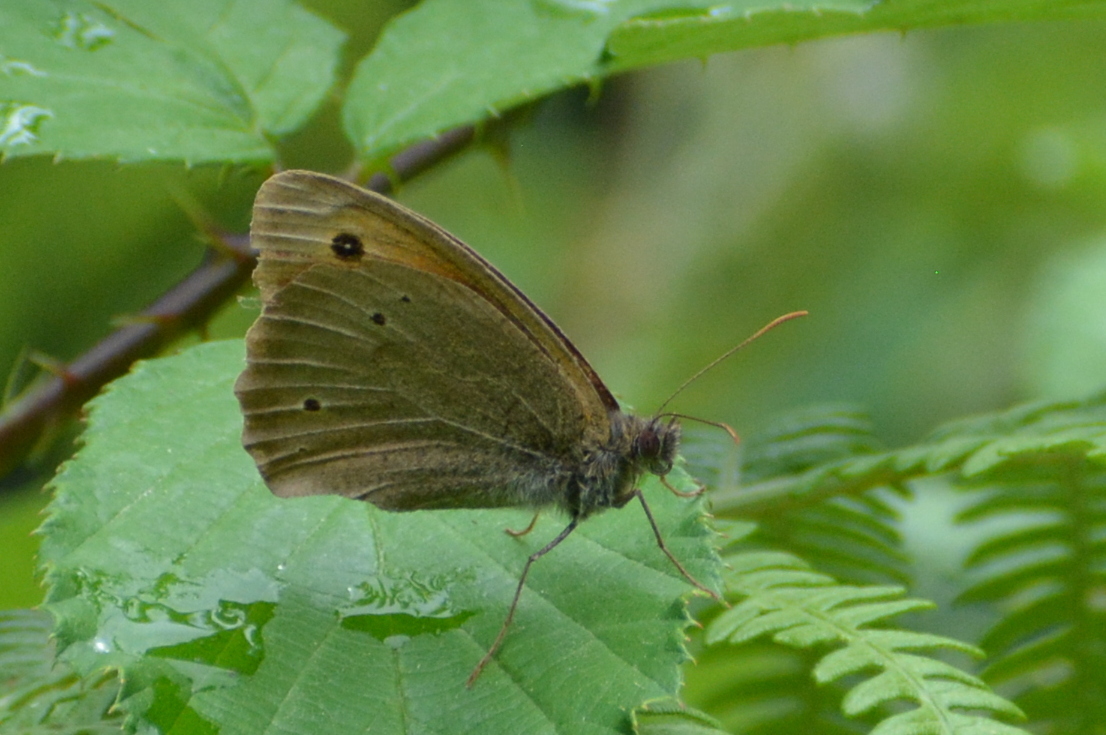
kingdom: Animalia
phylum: Arthropoda
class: Insecta
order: Lepidoptera
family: Nymphalidae
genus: Maniola
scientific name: Maniola jurtina
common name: Meadow brown
